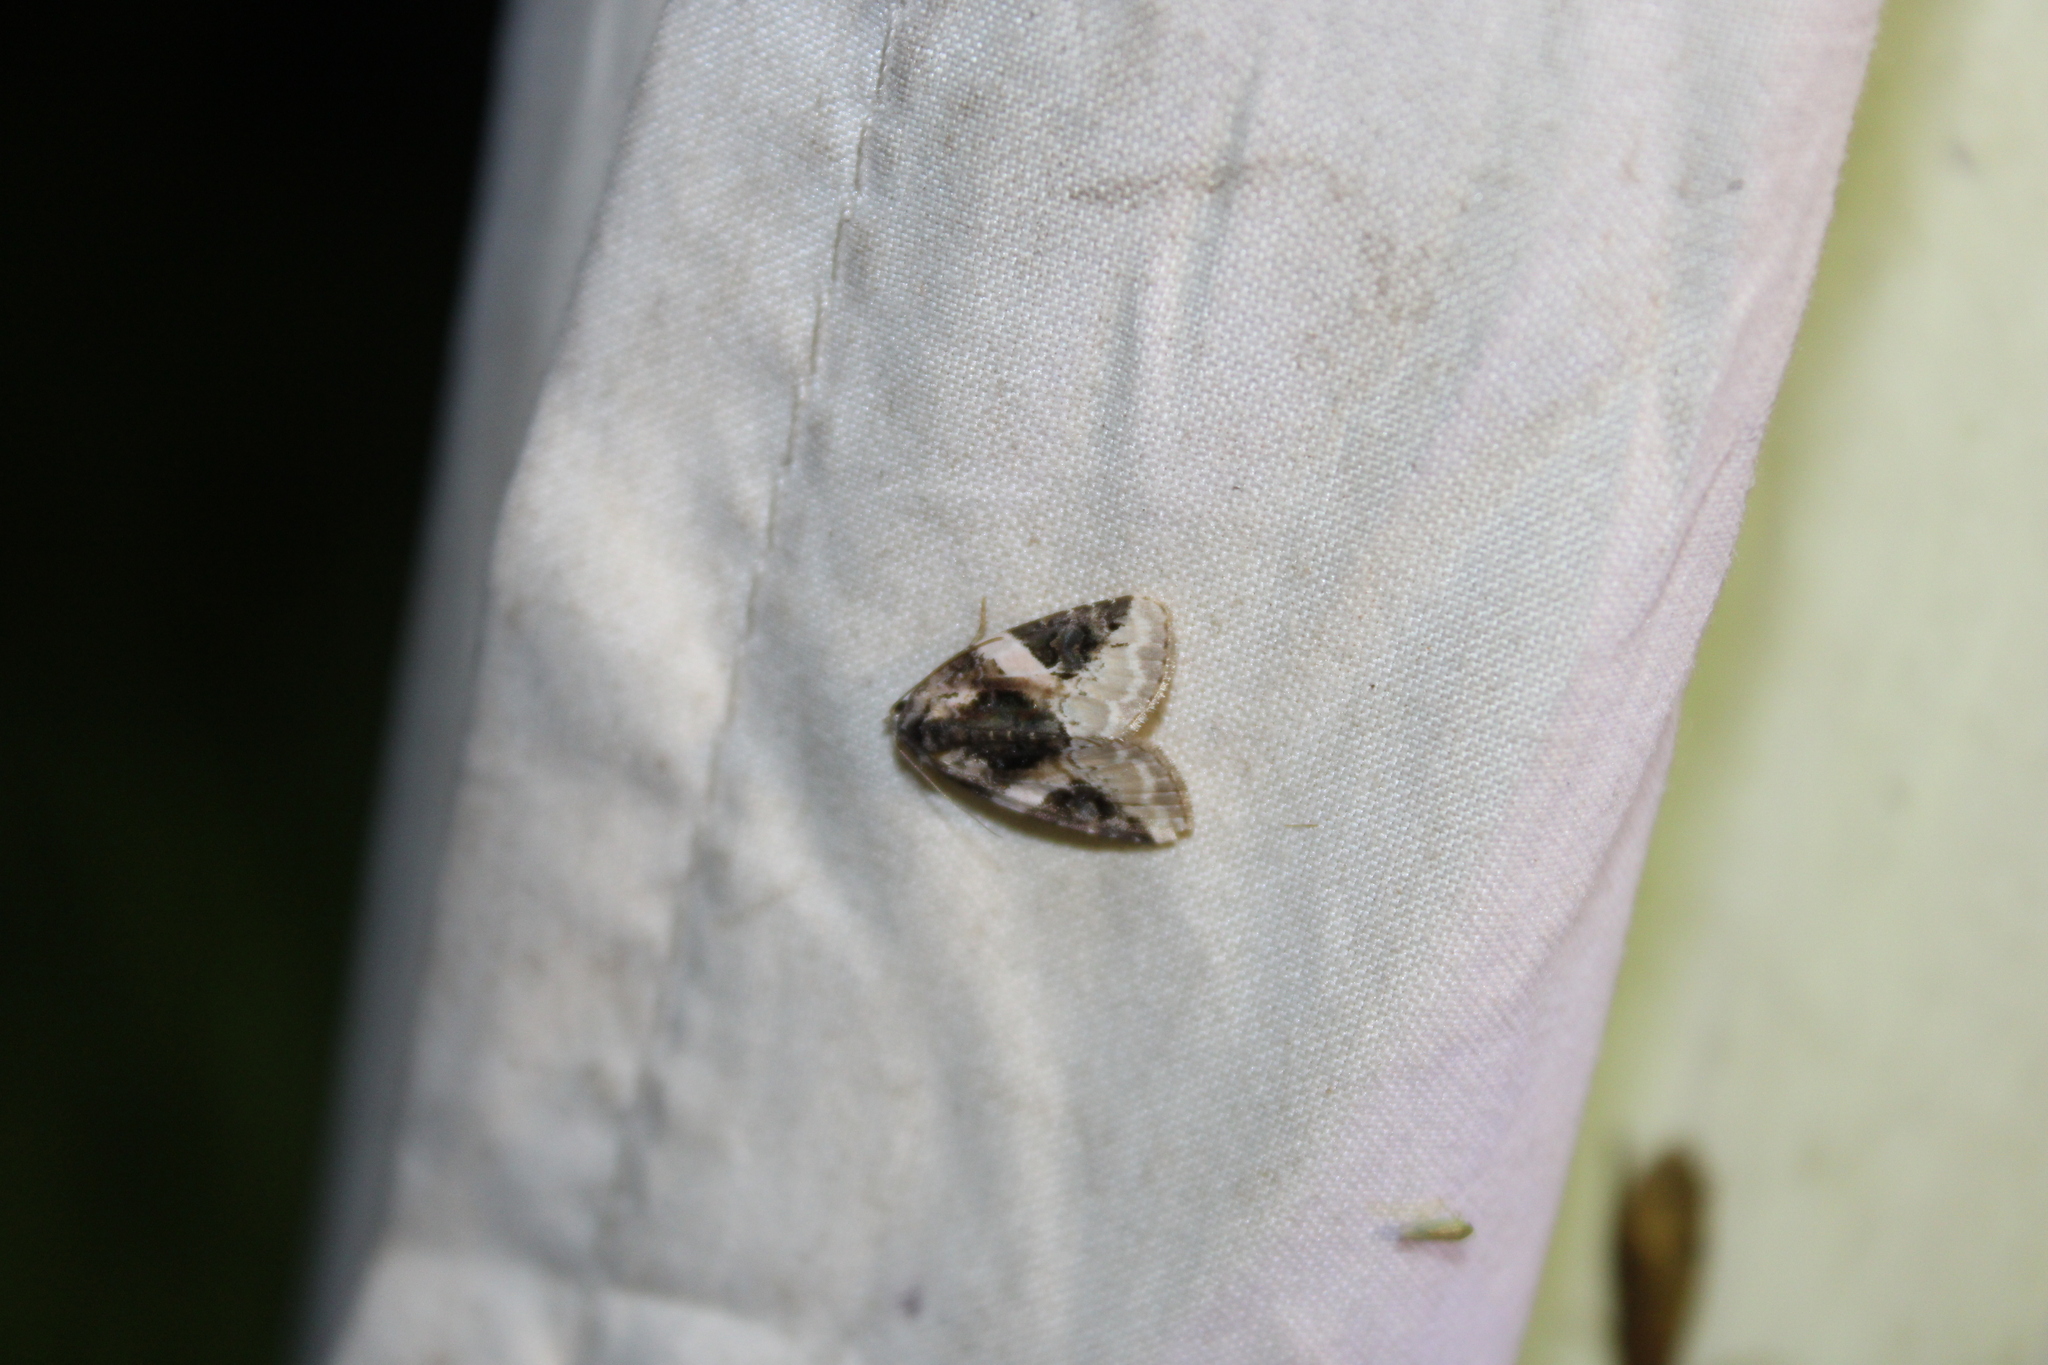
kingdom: Animalia
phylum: Arthropoda
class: Insecta
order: Lepidoptera
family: Noctuidae
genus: Pseudeustrotia
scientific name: Pseudeustrotia carneola
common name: Pink-barred lithacodia moth
